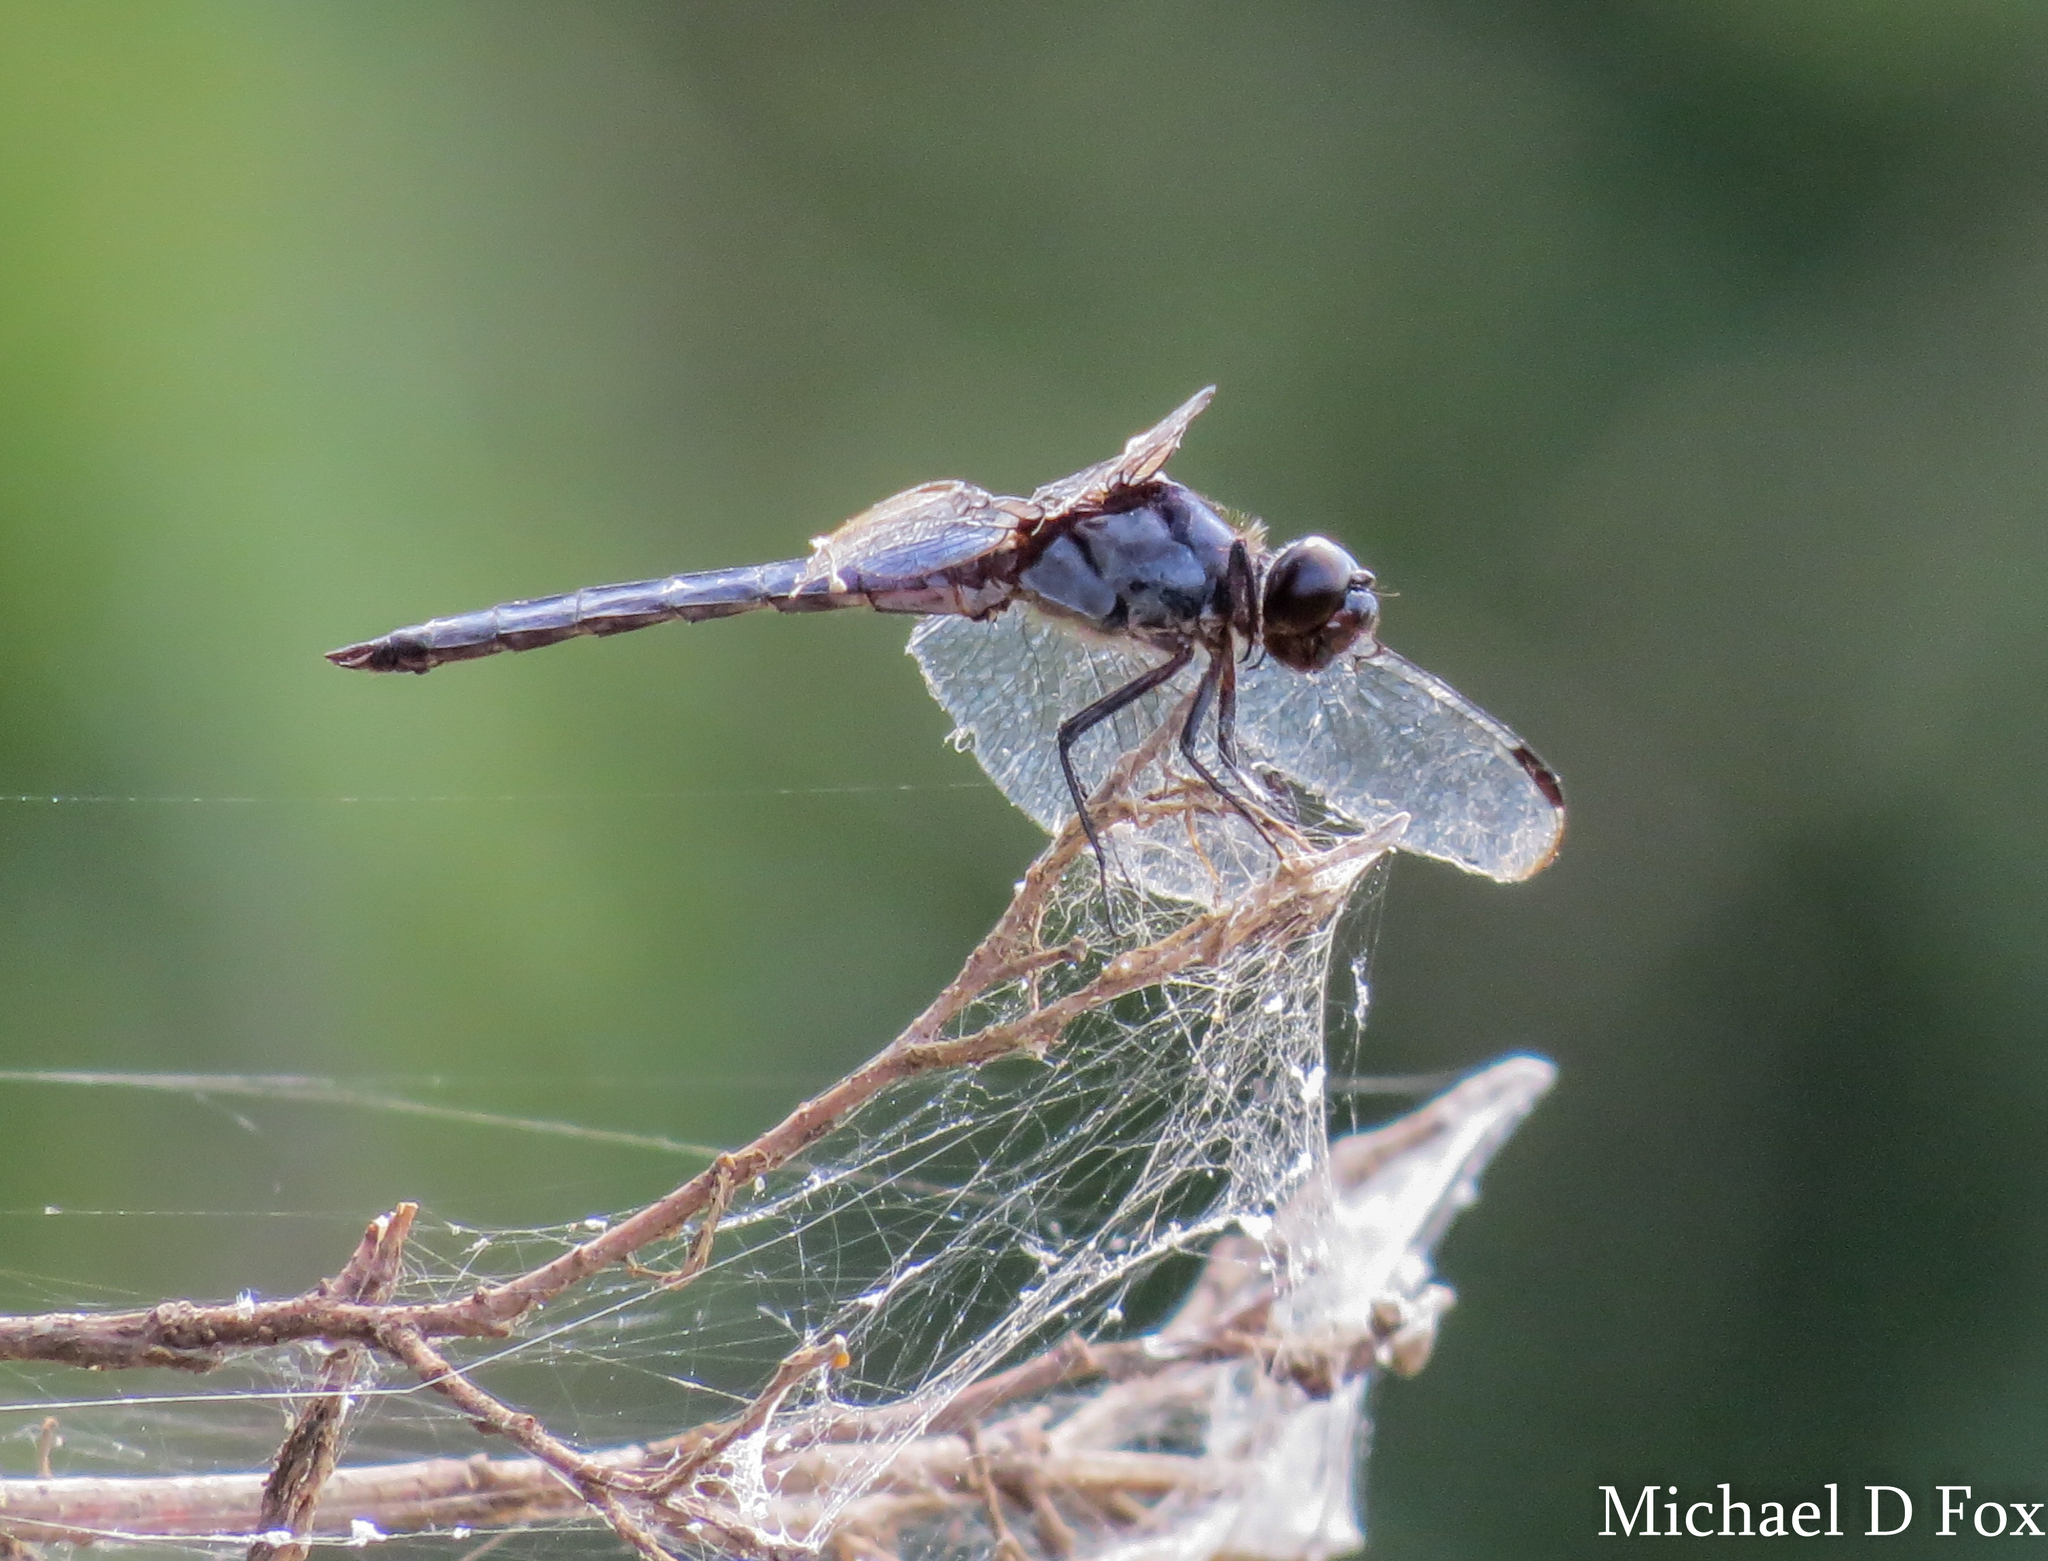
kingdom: Animalia
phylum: Arthropoda
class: Insecta
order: Odonata
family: Libellulidae
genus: Libellula
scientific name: Libellula incesta
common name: Slaty skimmer
